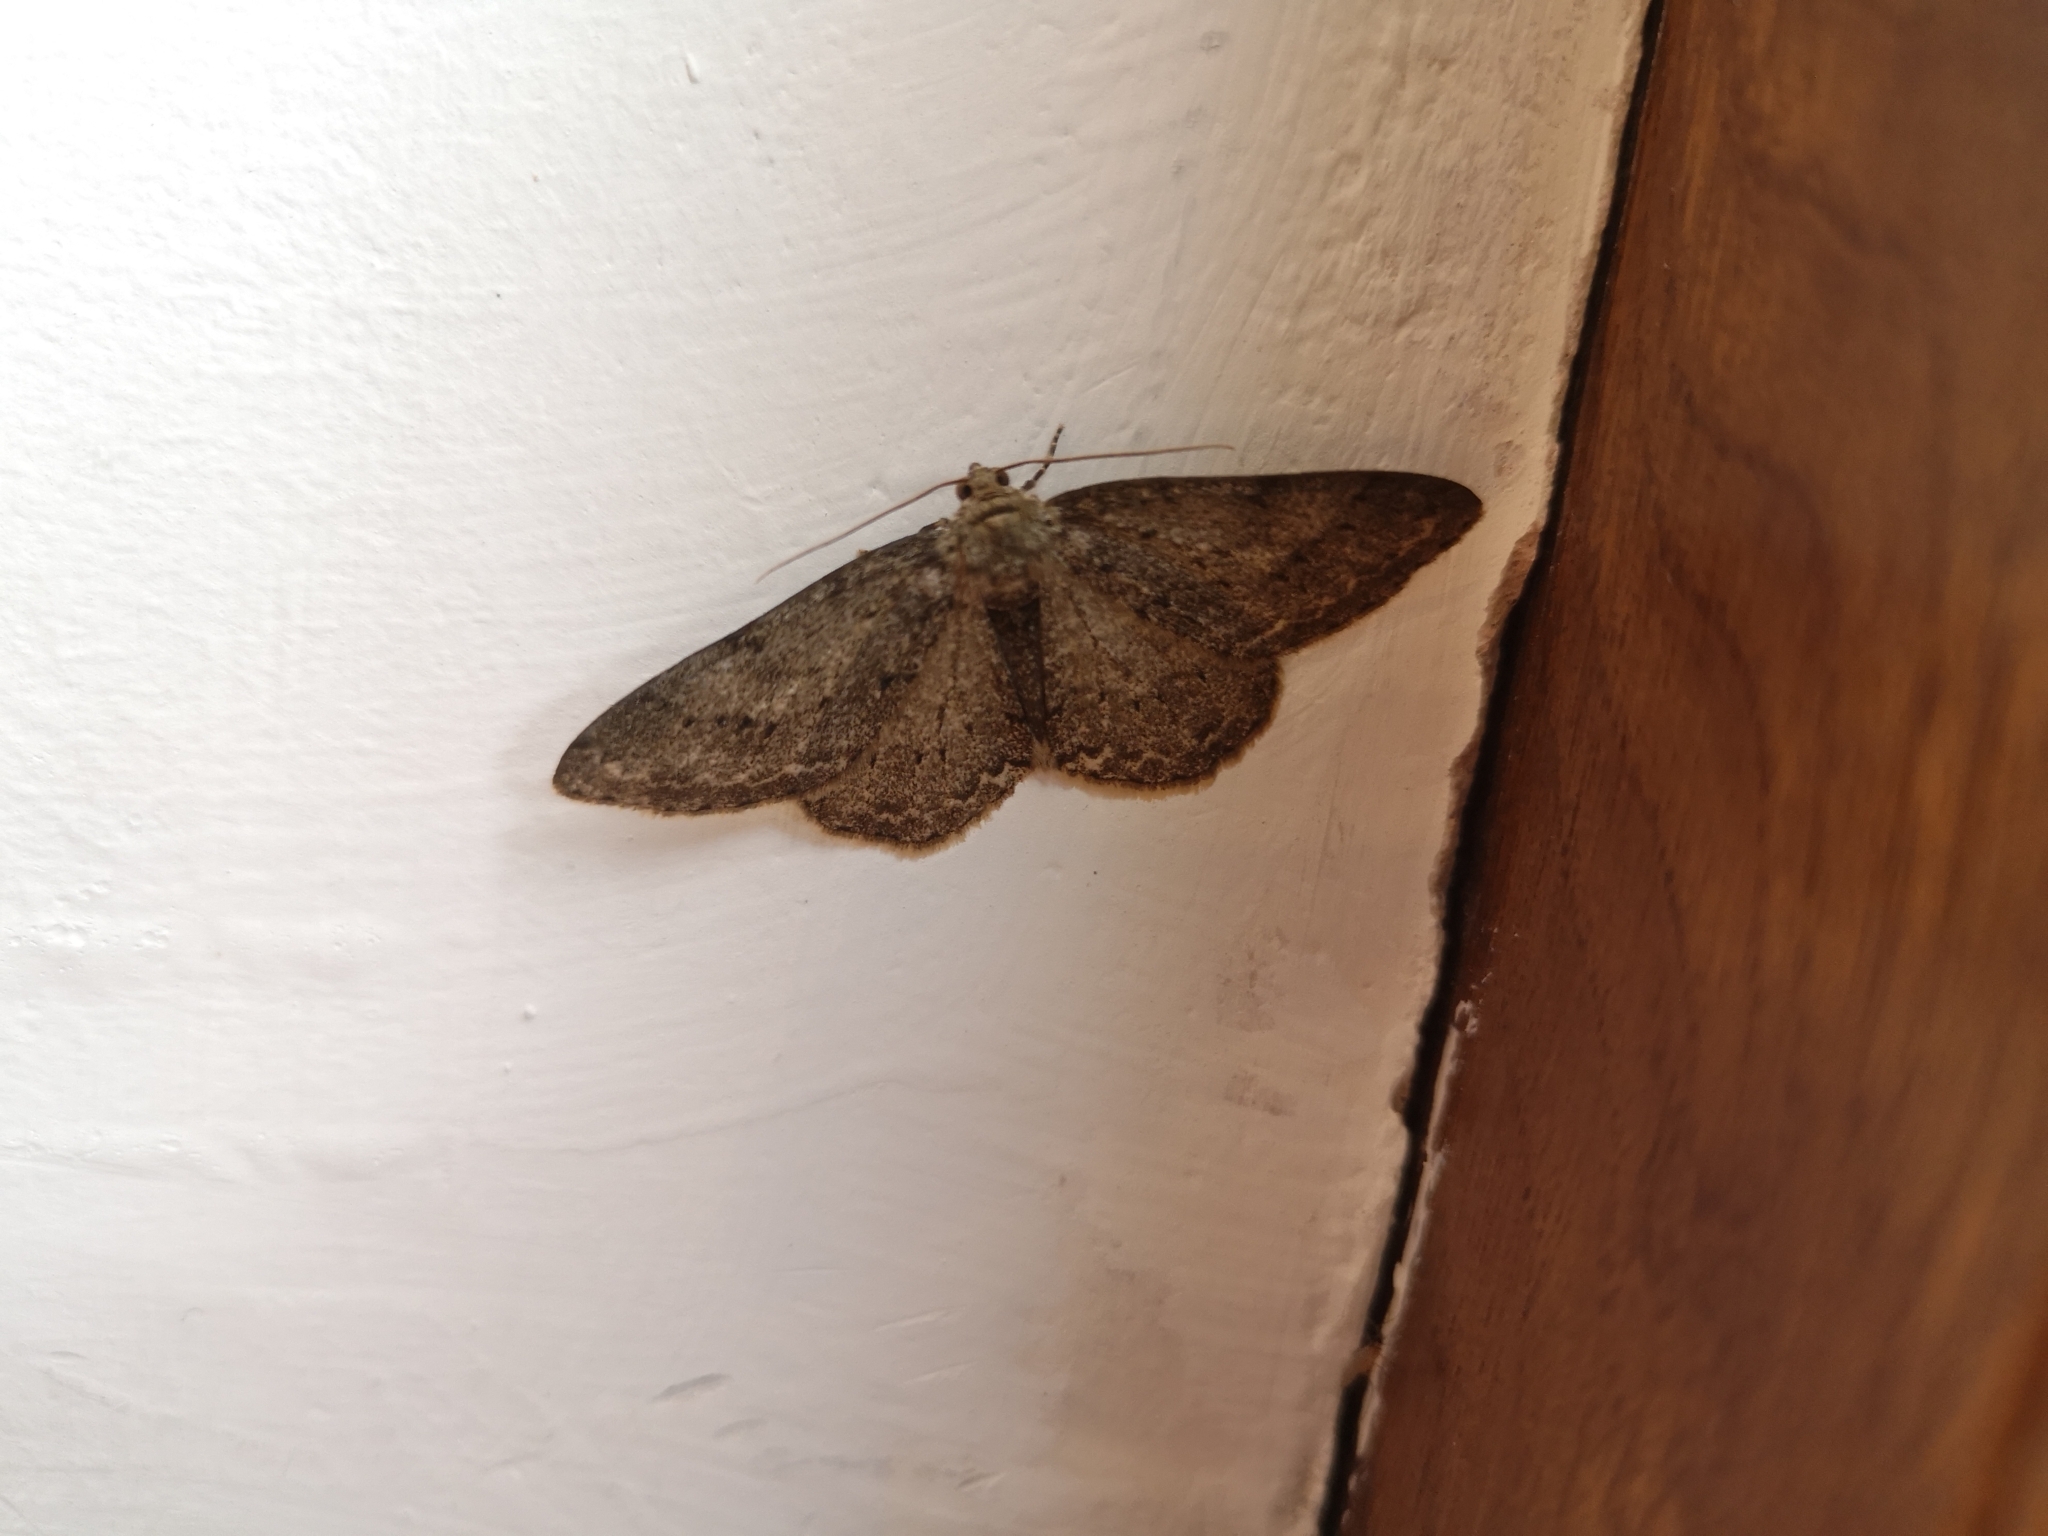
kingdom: Animalia
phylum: Arthropoda
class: Insecta
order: Lepidoptera
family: Geometridae
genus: Ectropis
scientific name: Ectropis crepuscularia
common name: Engrailed
